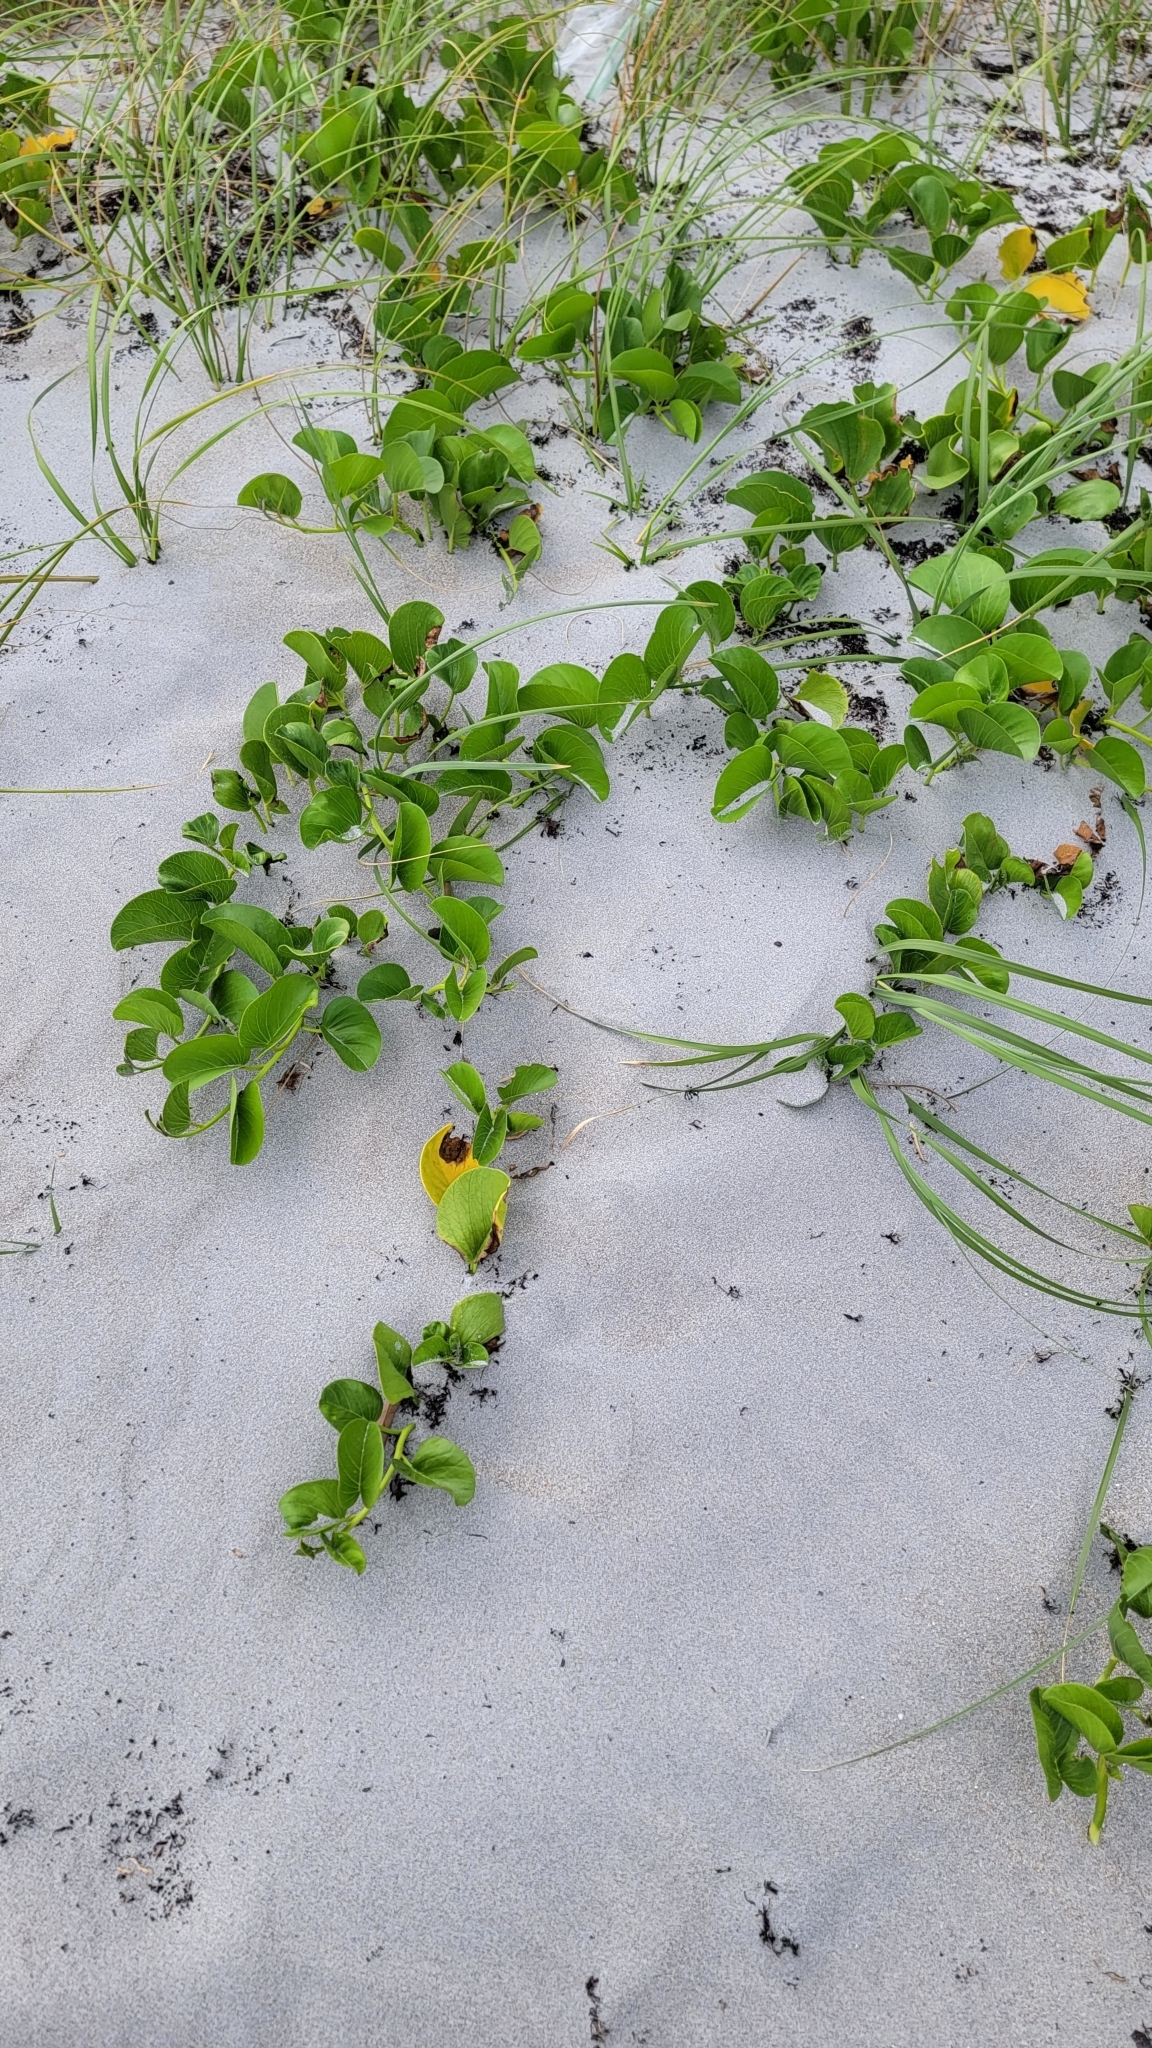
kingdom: Plantae
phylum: Tracheophyta
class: Magnoliopsida
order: Solanales
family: Convolvulaceae
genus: Ipomoea
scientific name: Ipomoea pes-caprae
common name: Beach morning glory
